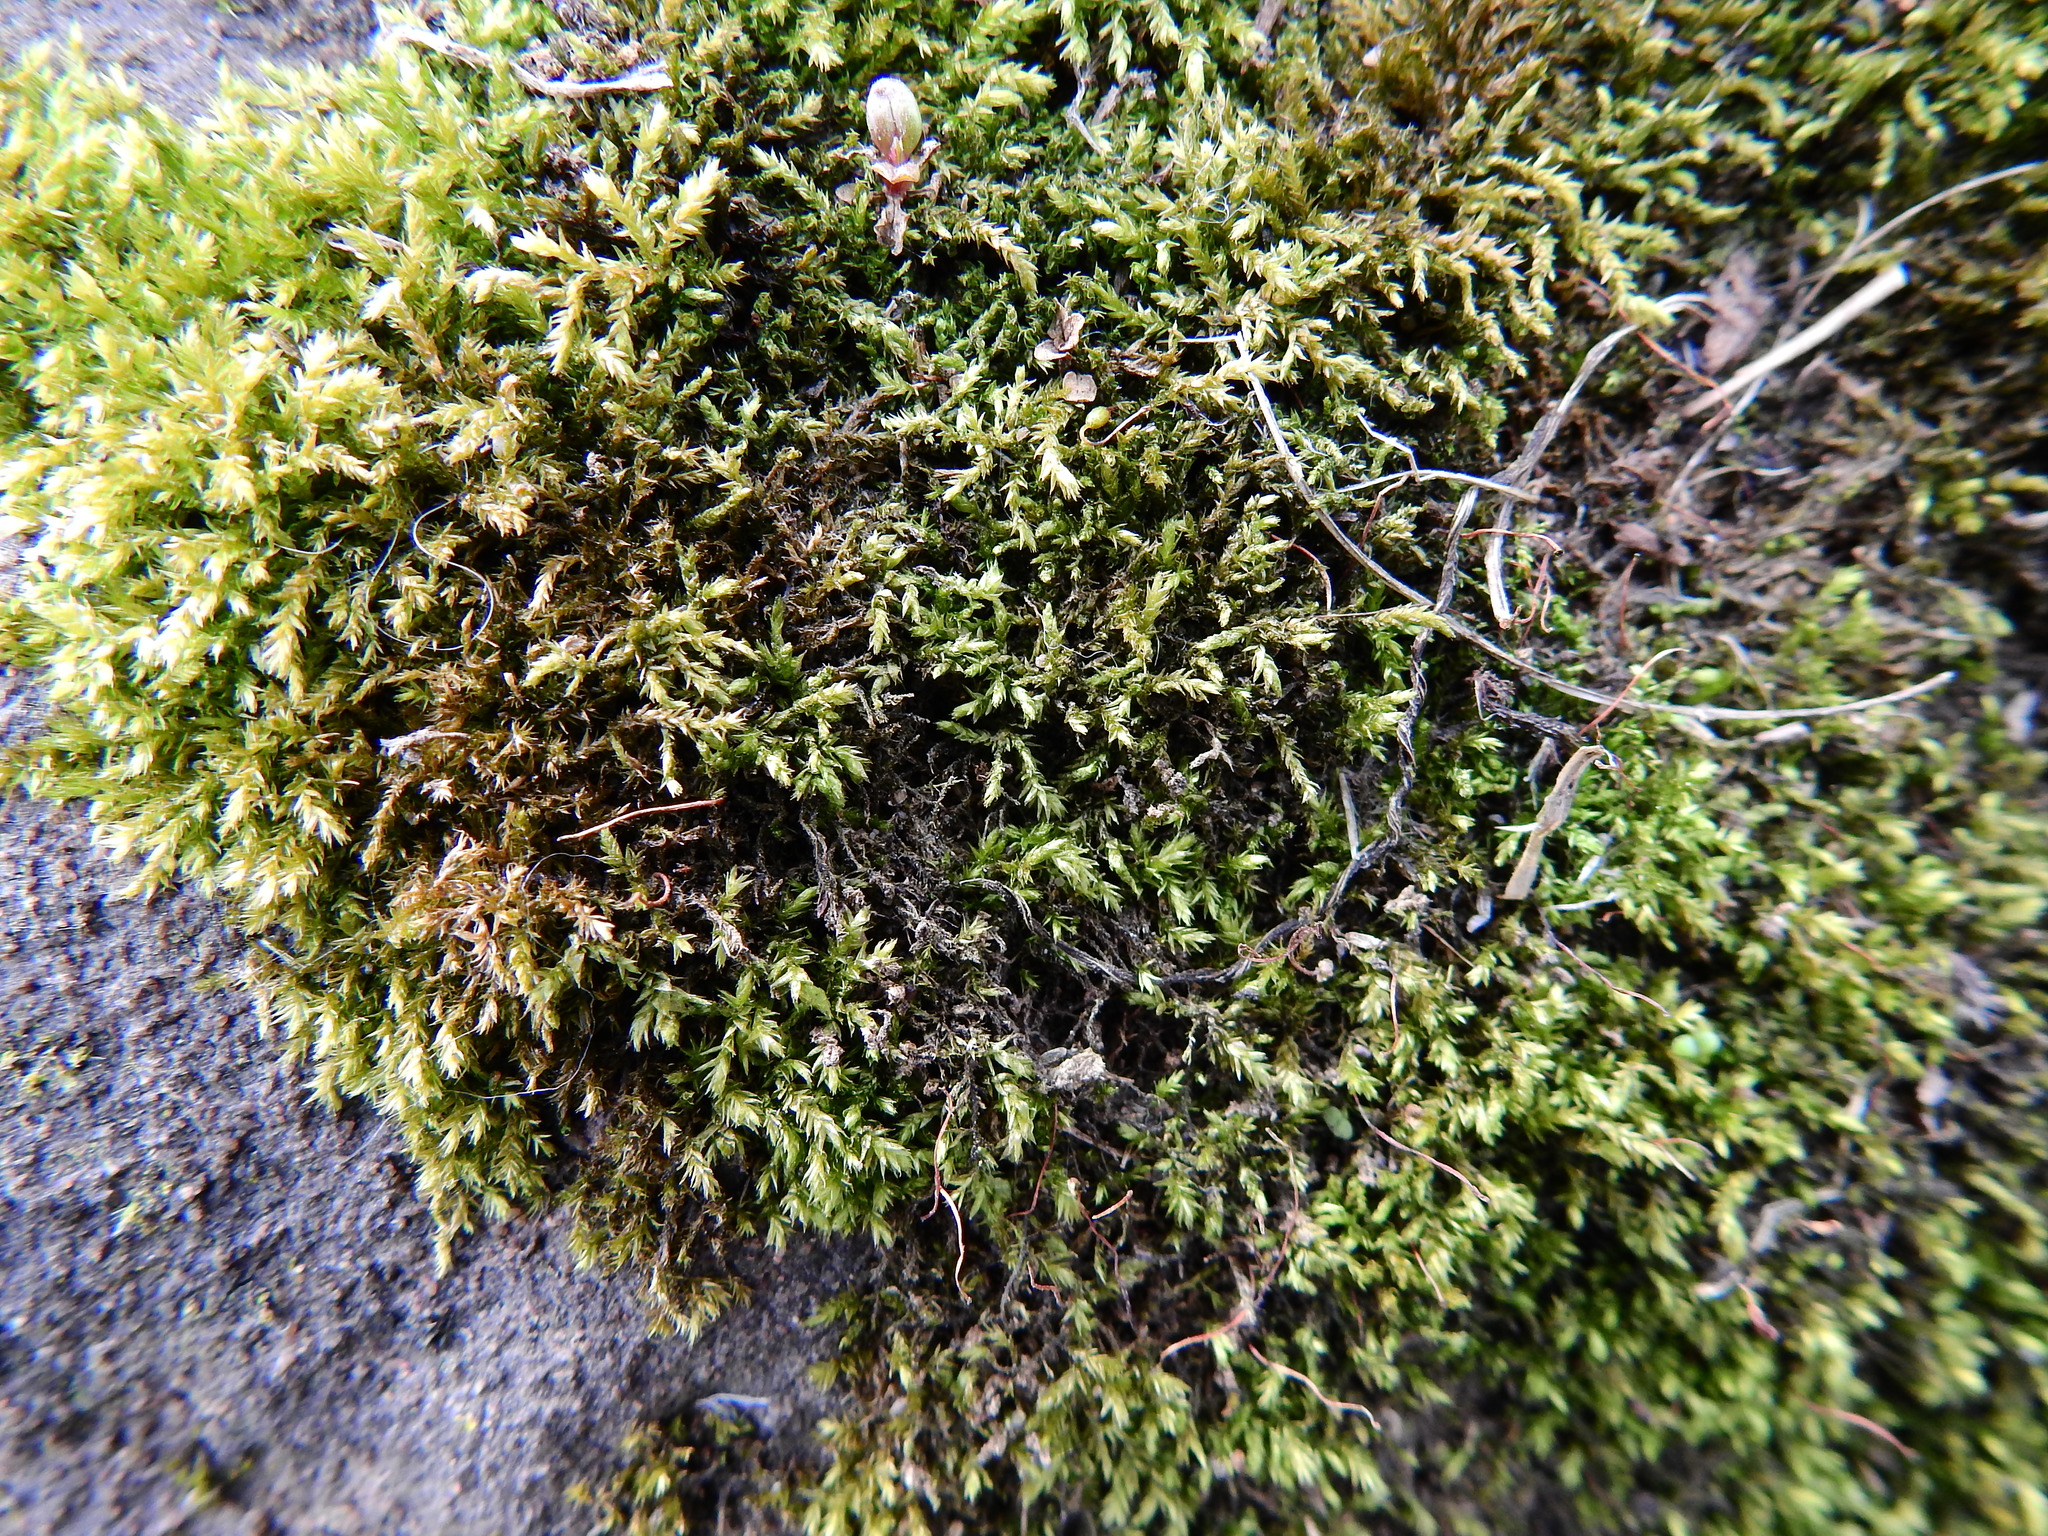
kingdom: Plantae
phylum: Bryophyta
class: Bryopsida
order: Hypnales
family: Brachytheciaceae
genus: Brachythecium
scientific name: Brachythecium rutabulum
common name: Rough-stalked feather-moss
